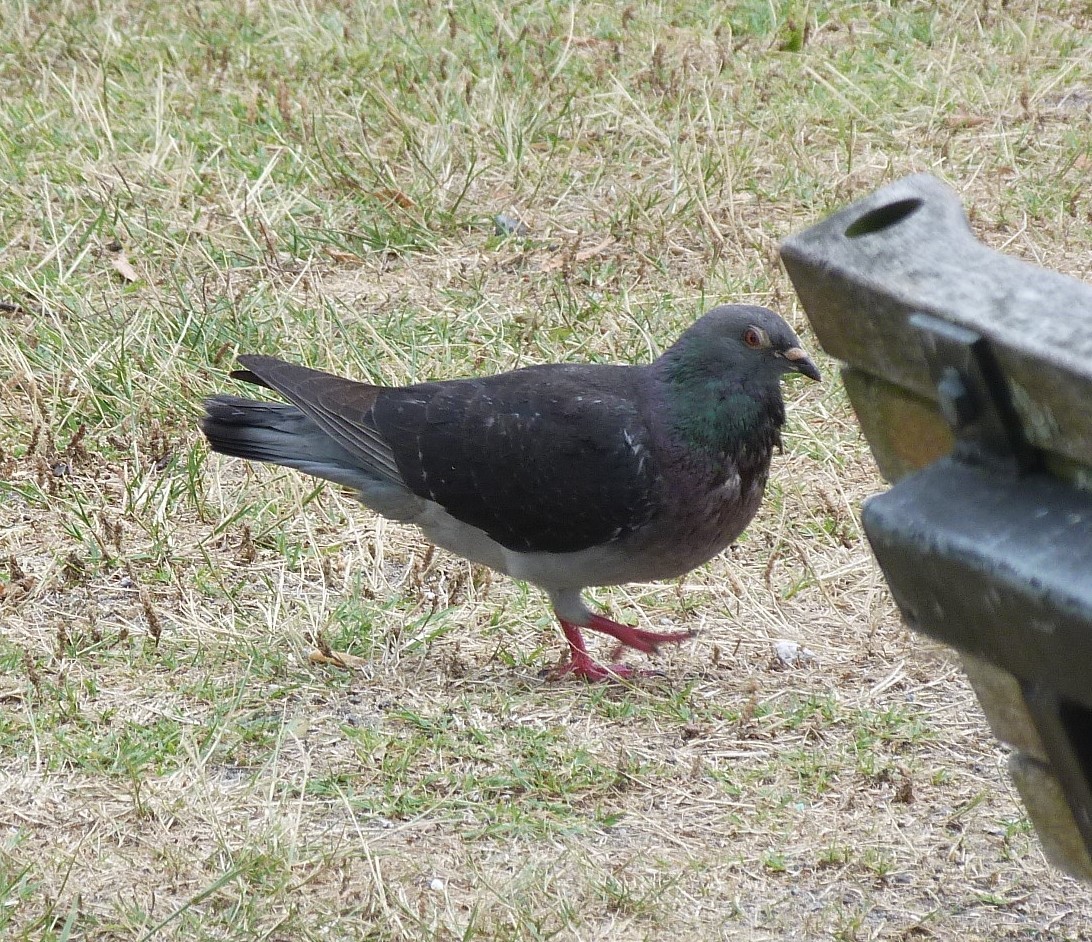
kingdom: Animalia
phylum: Chordata
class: Aves
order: Columbiformes
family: Columbidae
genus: Columba
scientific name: Columba livia
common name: Rock pigeon
